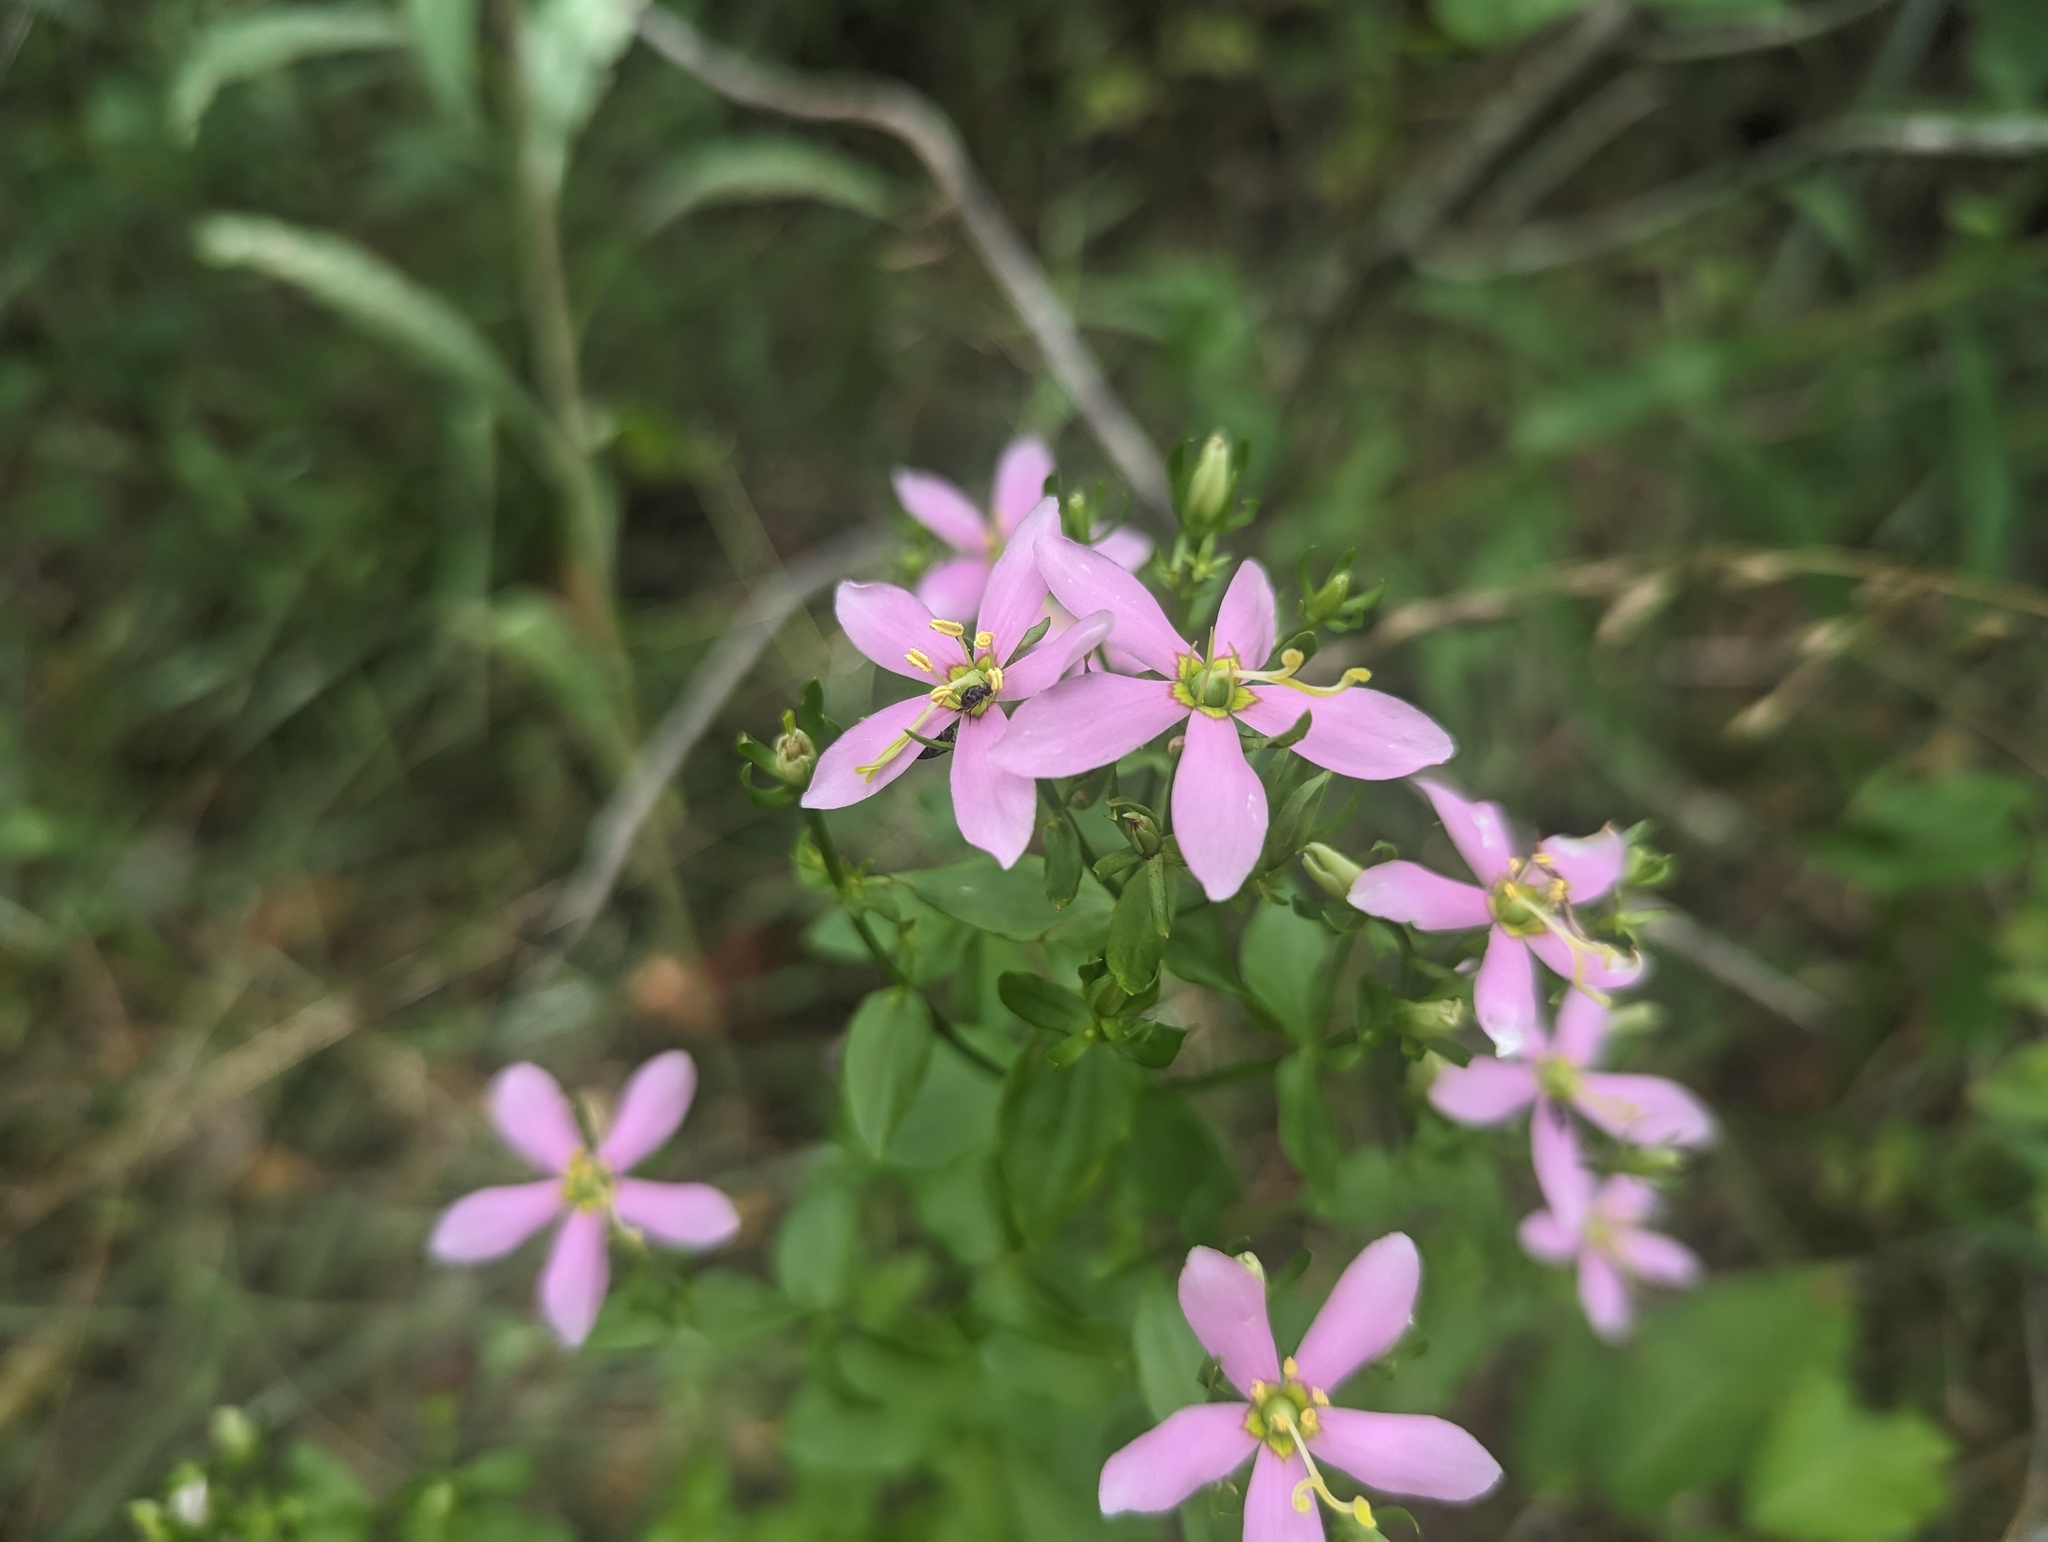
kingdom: Plantae
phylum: Tracheophyta
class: Magnoliopsida
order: Gentianales
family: Gentianaceae
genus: Sabatia
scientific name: Sabatia angularis
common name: Rose-pink
